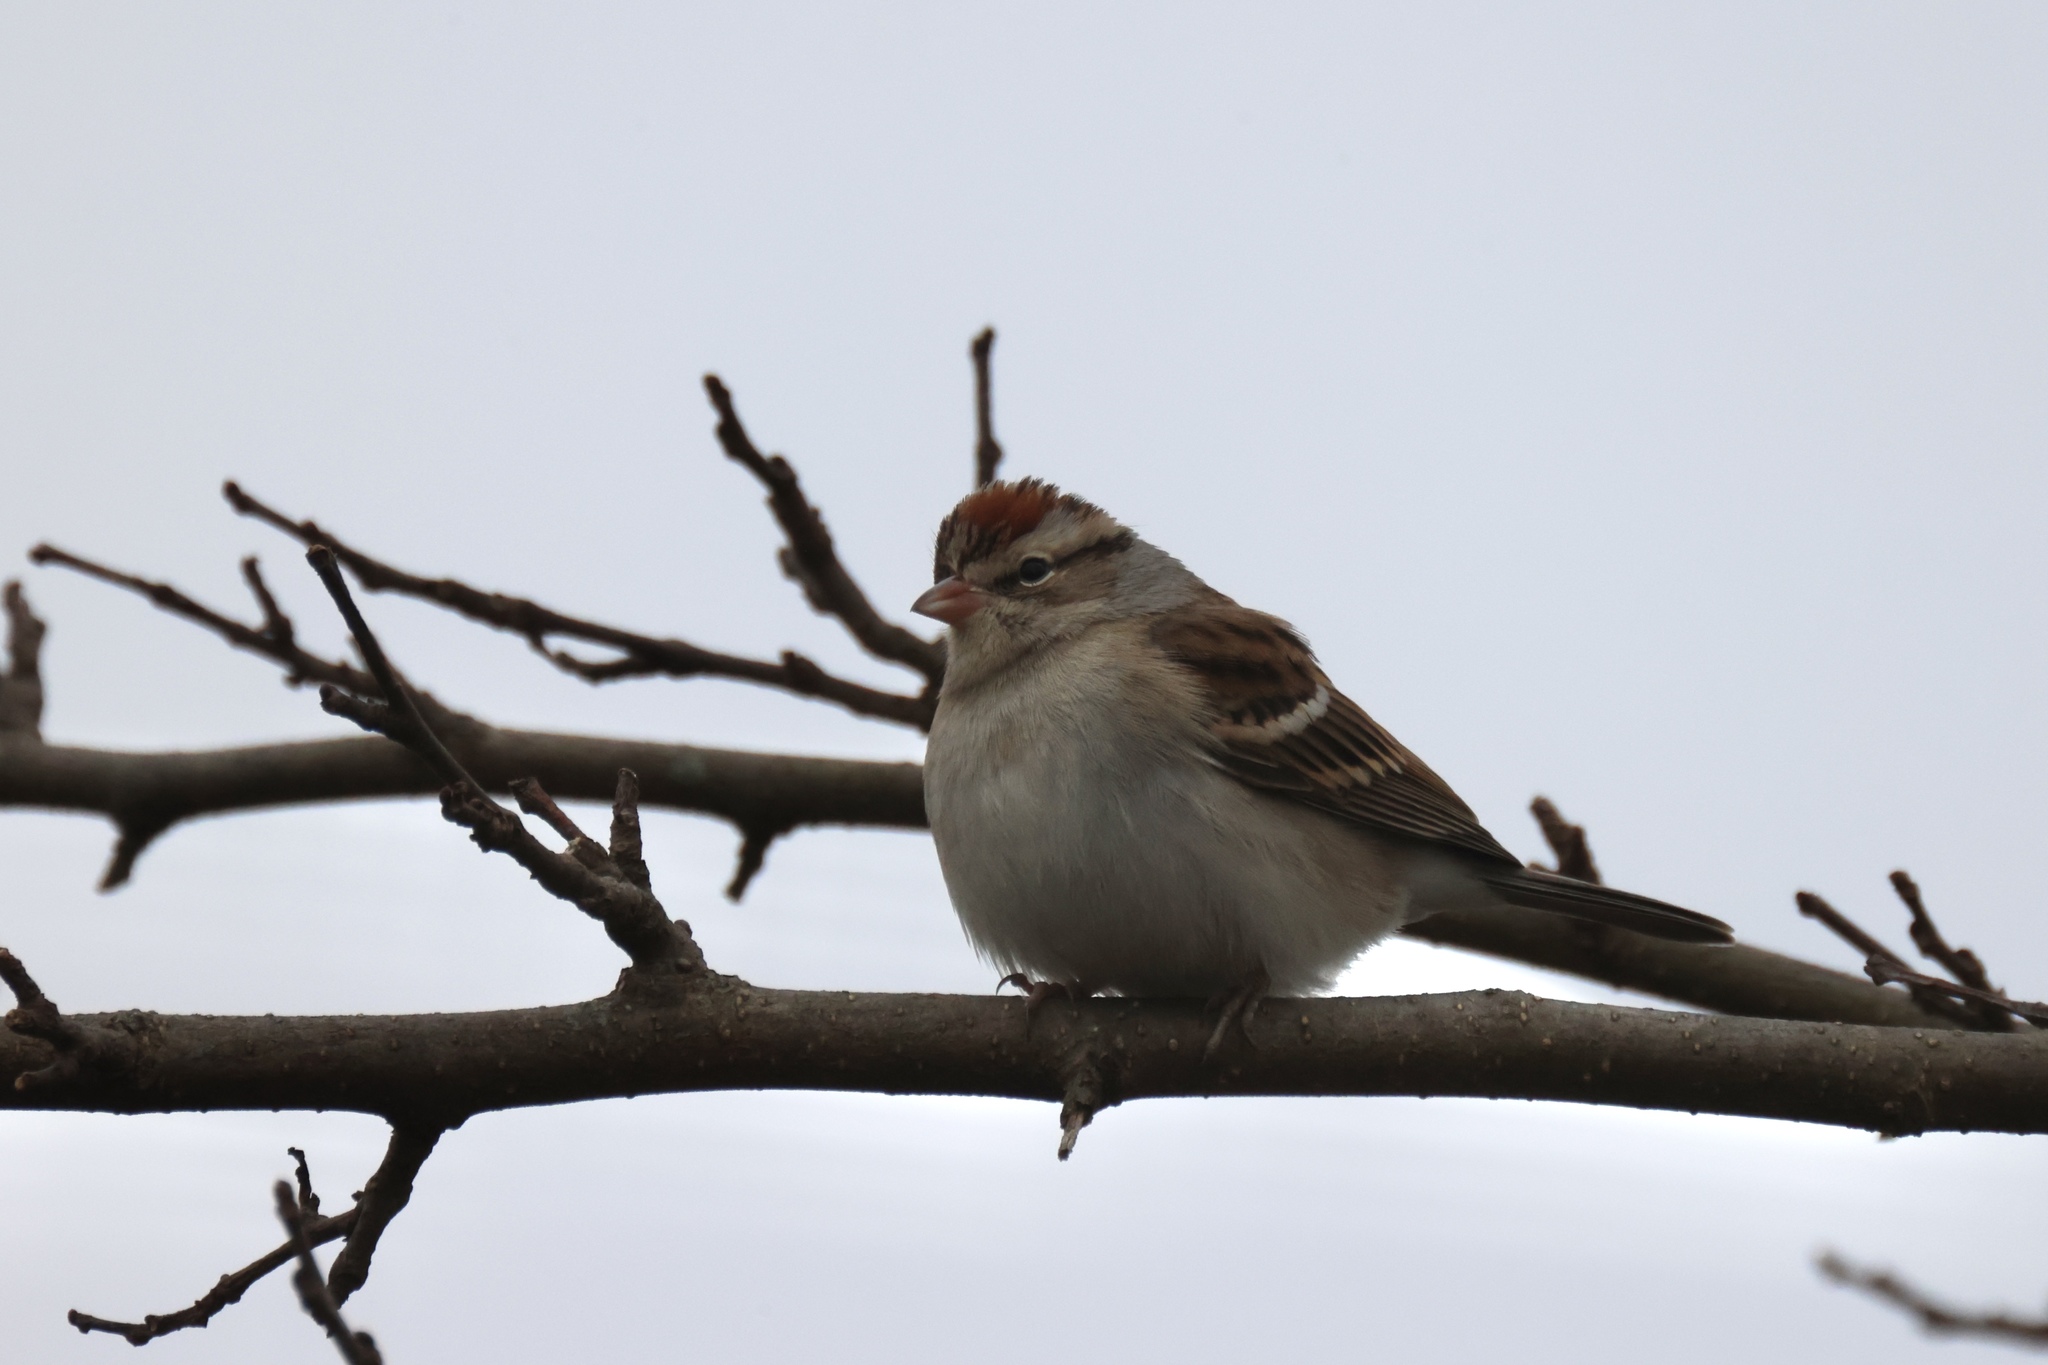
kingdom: Animalia
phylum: Chordata
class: Aves
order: Passeriformes
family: Passerellidae
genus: Spizella
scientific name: Spizella passerina
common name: Chipping sparrow
